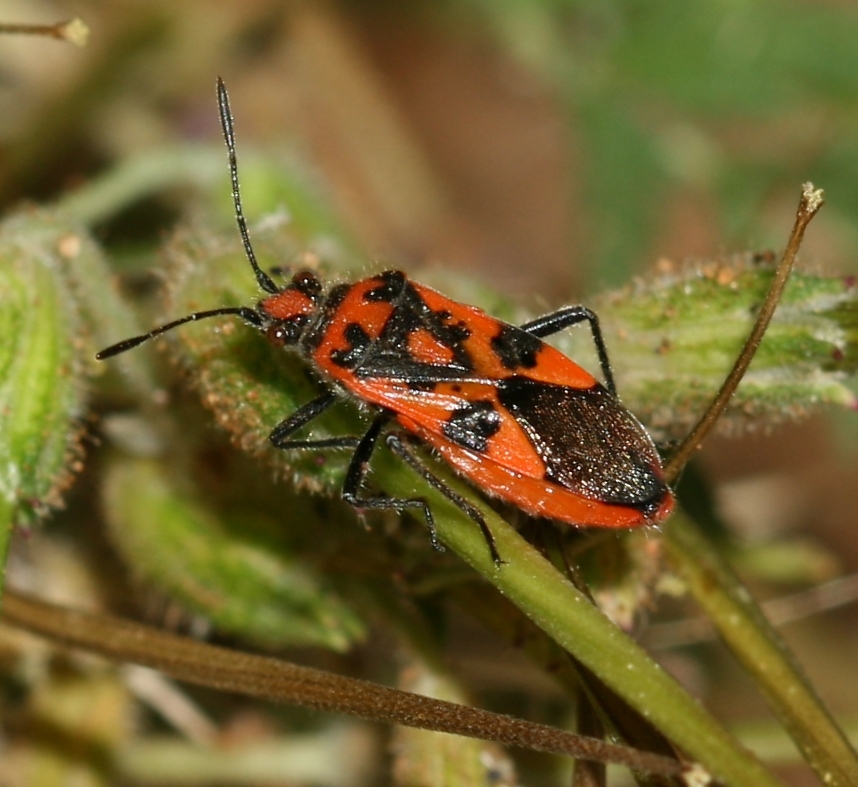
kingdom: Animalia
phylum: Arthropoda
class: Insecta
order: Hemiptera
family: Rhopalidae
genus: Corizus
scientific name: Corizus hyoscyami
